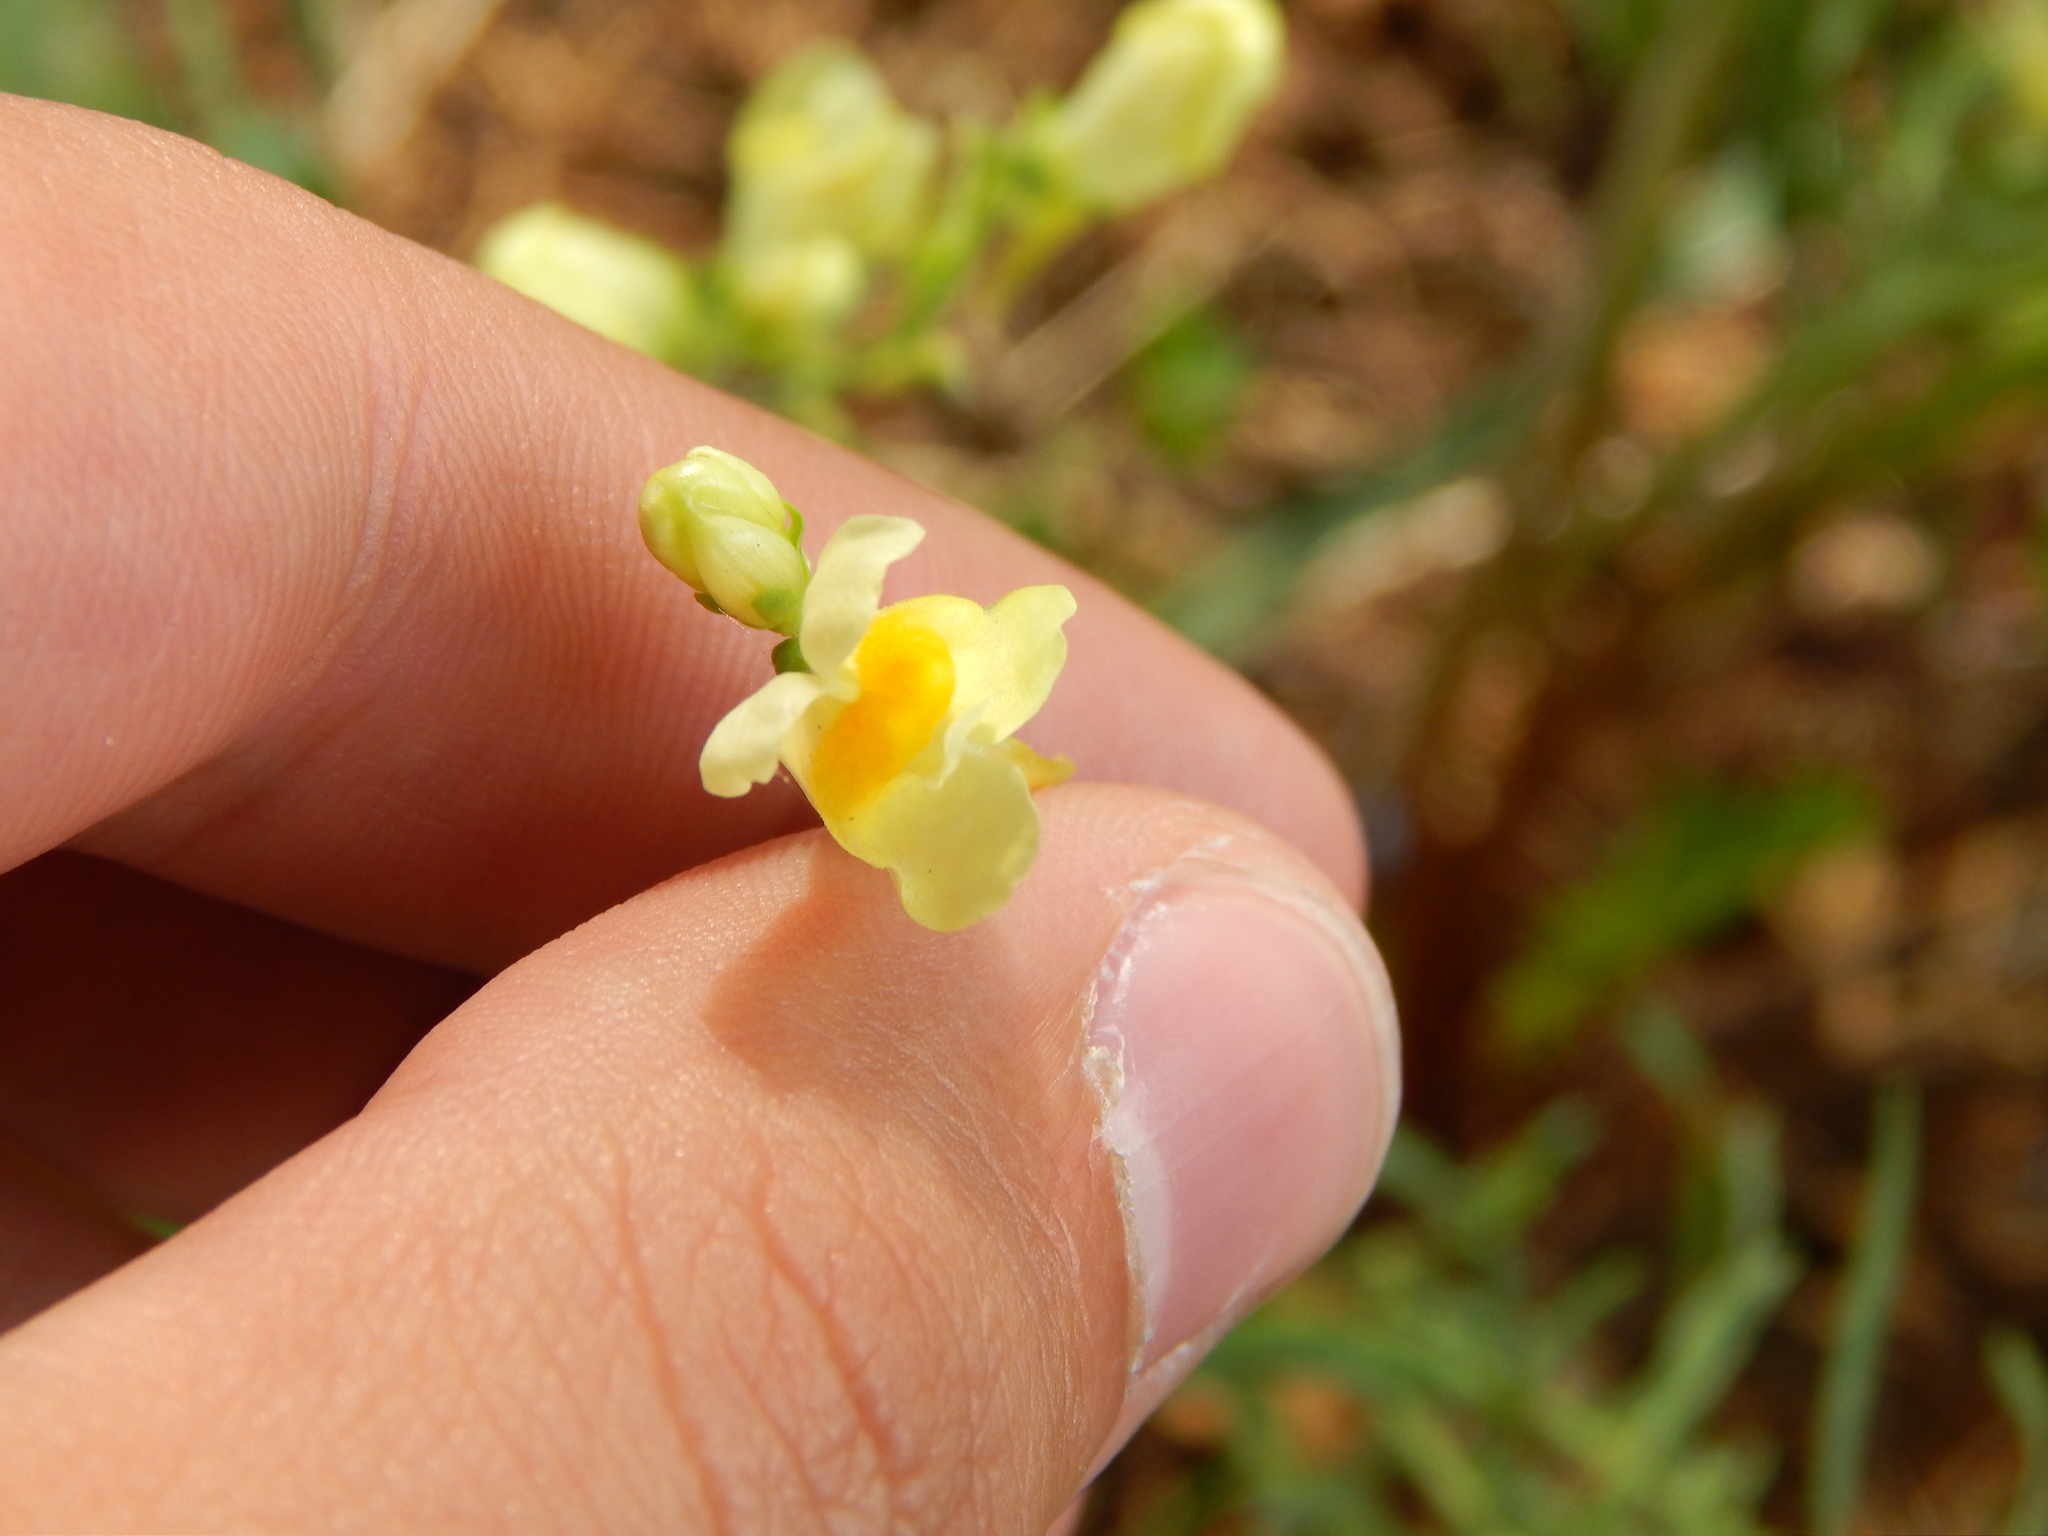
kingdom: Plantae
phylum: Tracheophyta
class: Magnoliopsida
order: Lamiales
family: Plantaginaceae
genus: Linaria
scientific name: Linaria vulgaris
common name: Butter and eggs
